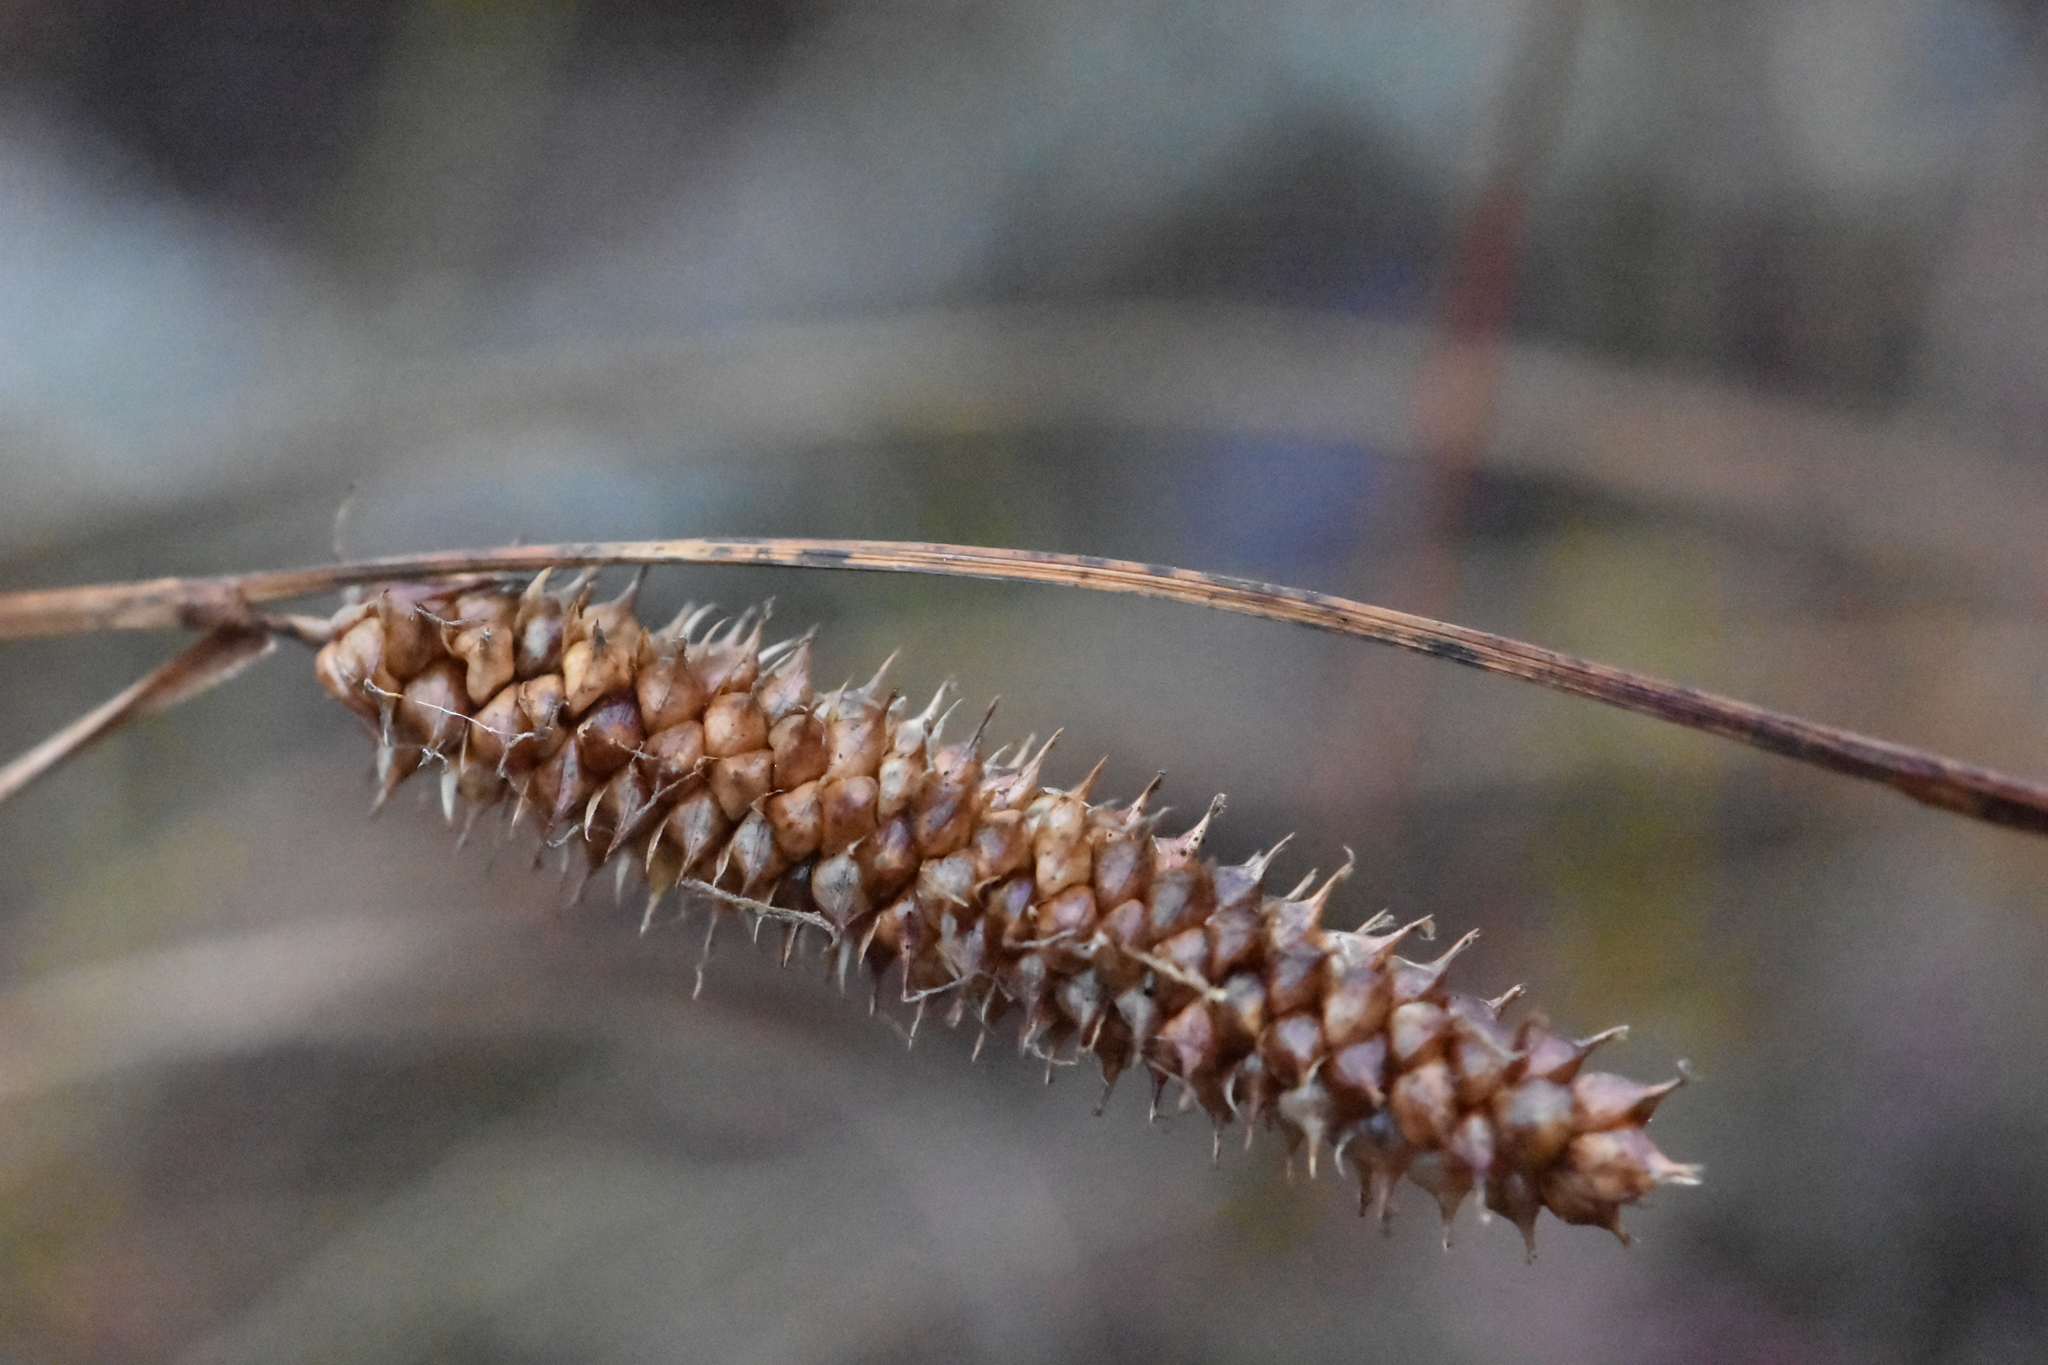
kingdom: Plantae
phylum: Tracheophyta
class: Liliopsida
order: Poales
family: Cyperaceae
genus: Carex
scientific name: Carex rostrata
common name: Bottle sedge
